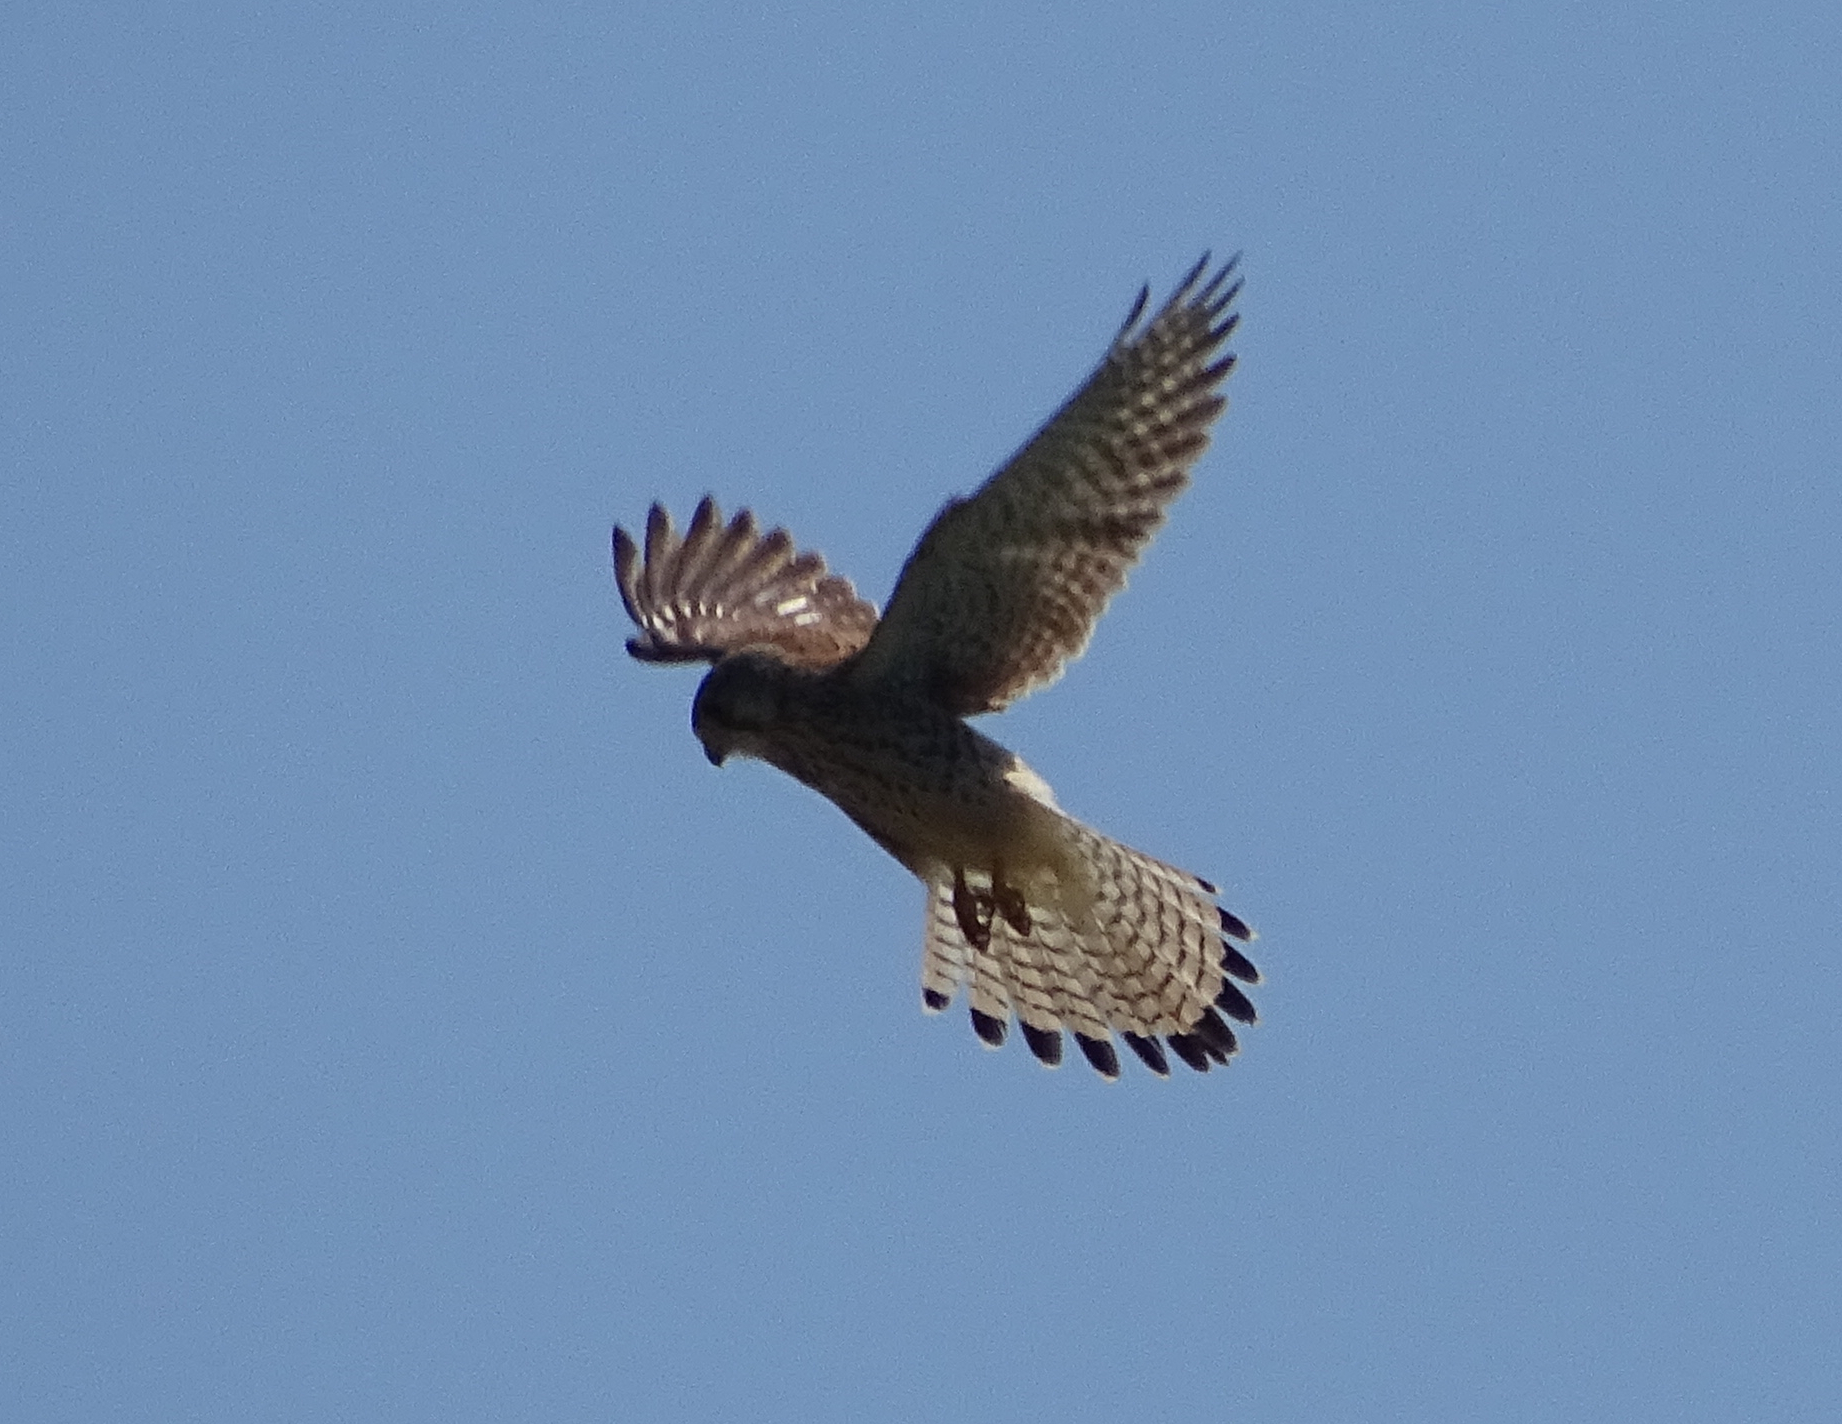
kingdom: Animalia
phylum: Chordata
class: Aves
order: Falconiformes
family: Falconidae
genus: Falco
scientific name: Falco tinnunculus
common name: Common kestrel
